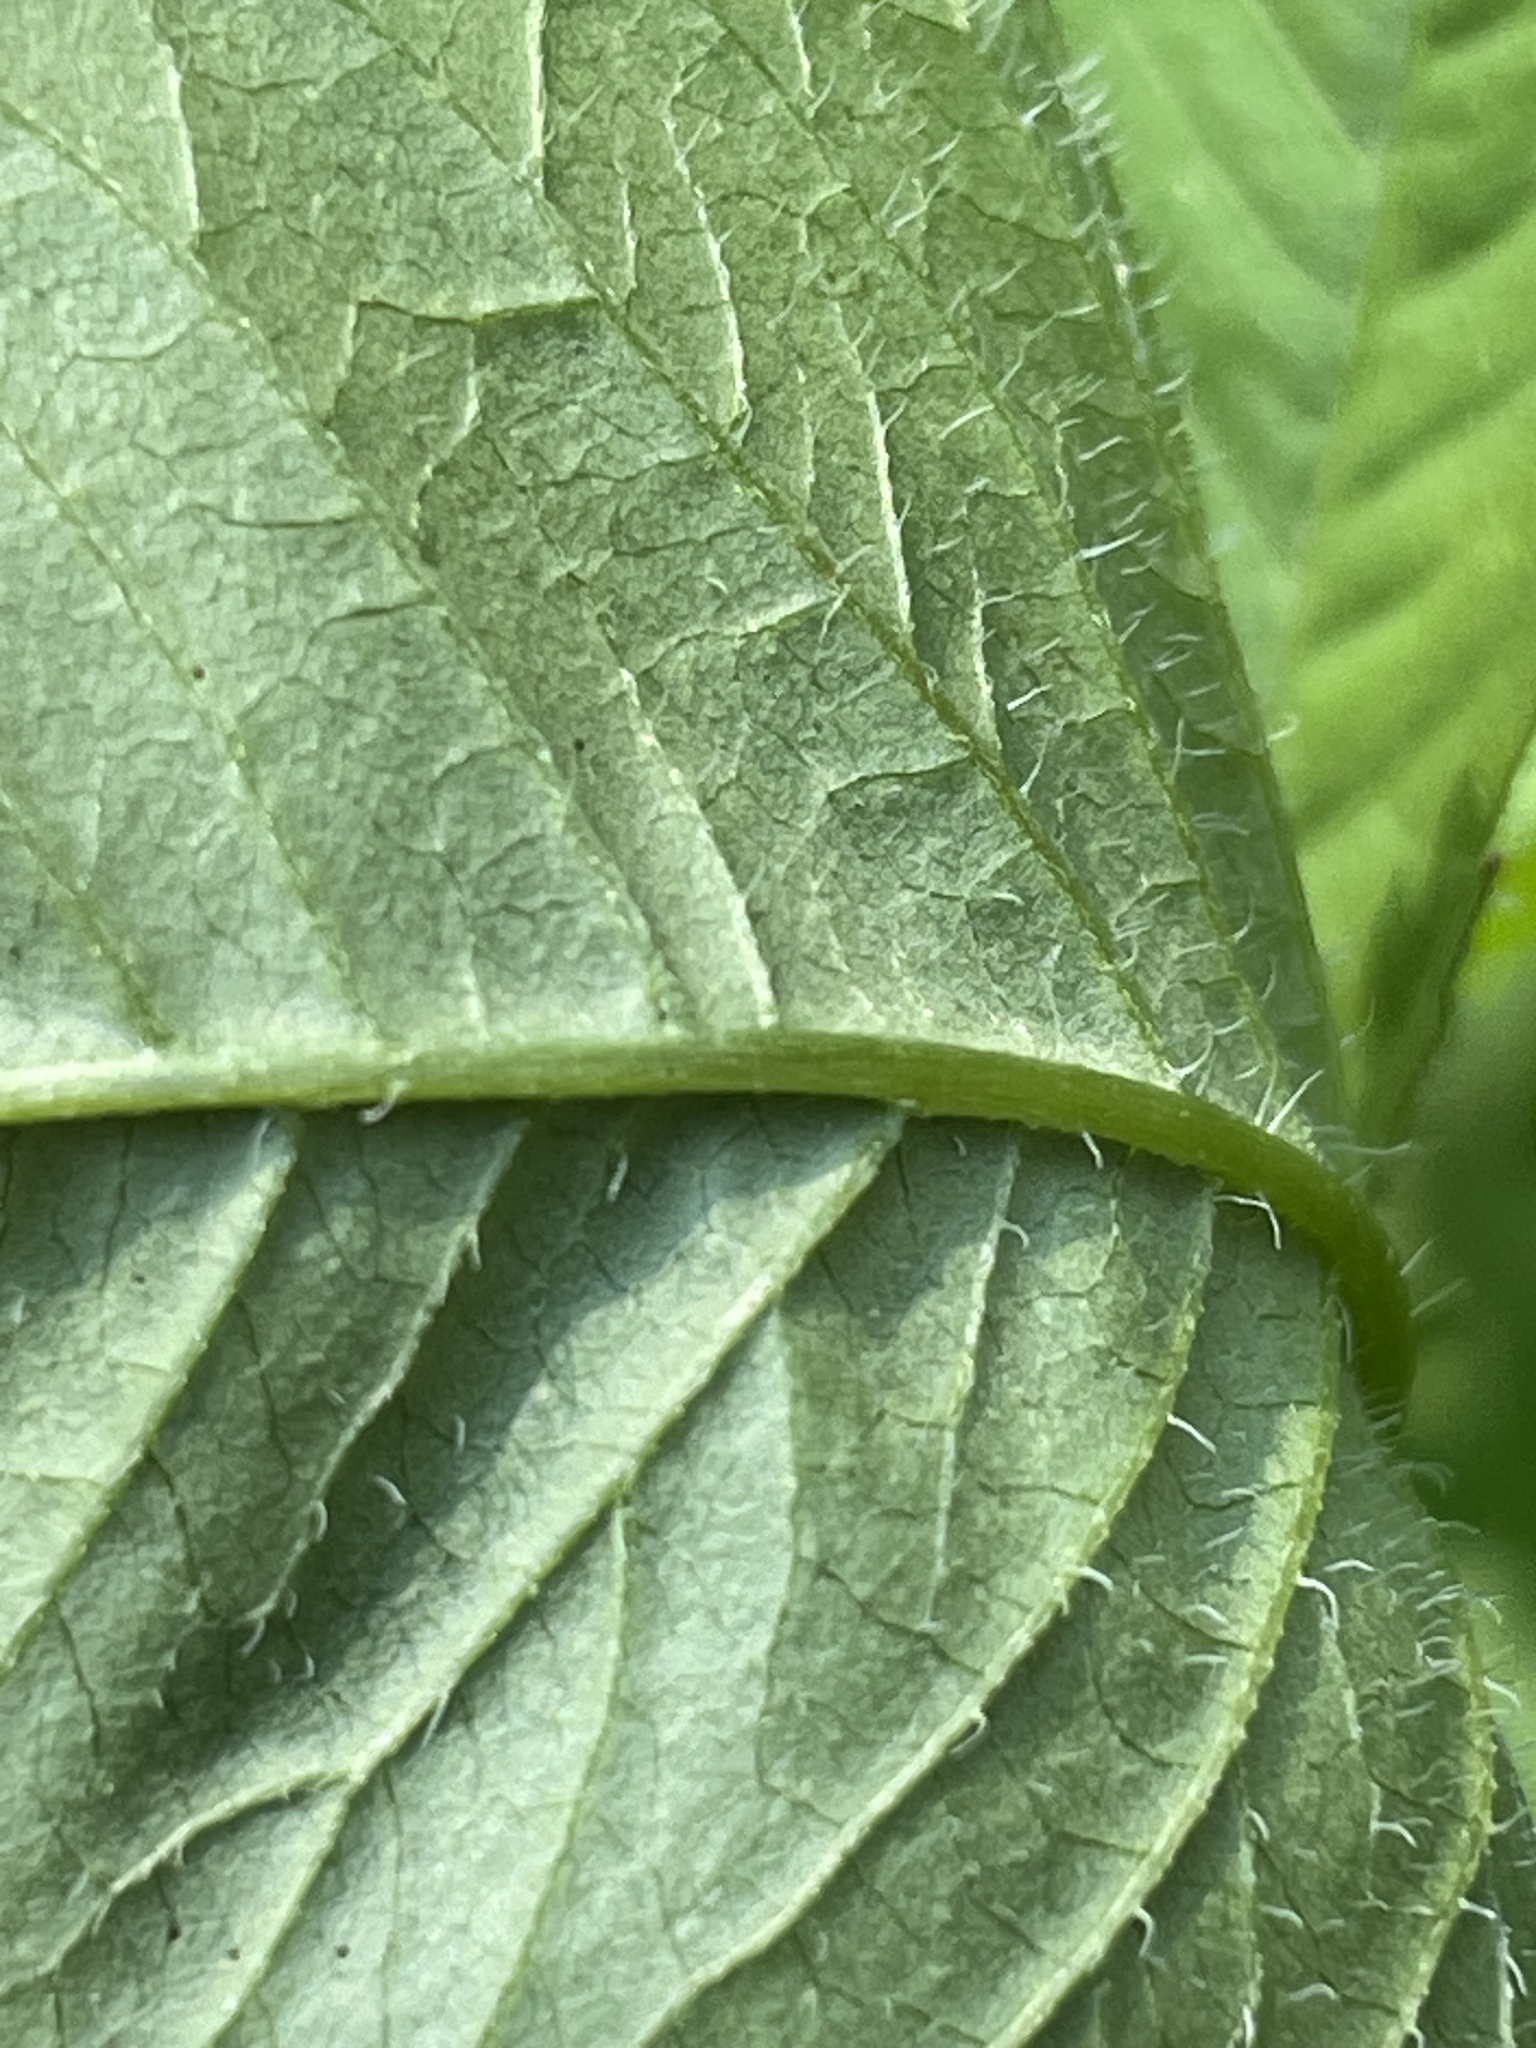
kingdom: Plantae
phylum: Tracheophyta
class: Magnoliopsida
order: Asterales
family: Asteraceae
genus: Bidens
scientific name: Bidens frondosa
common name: Beggarticks
